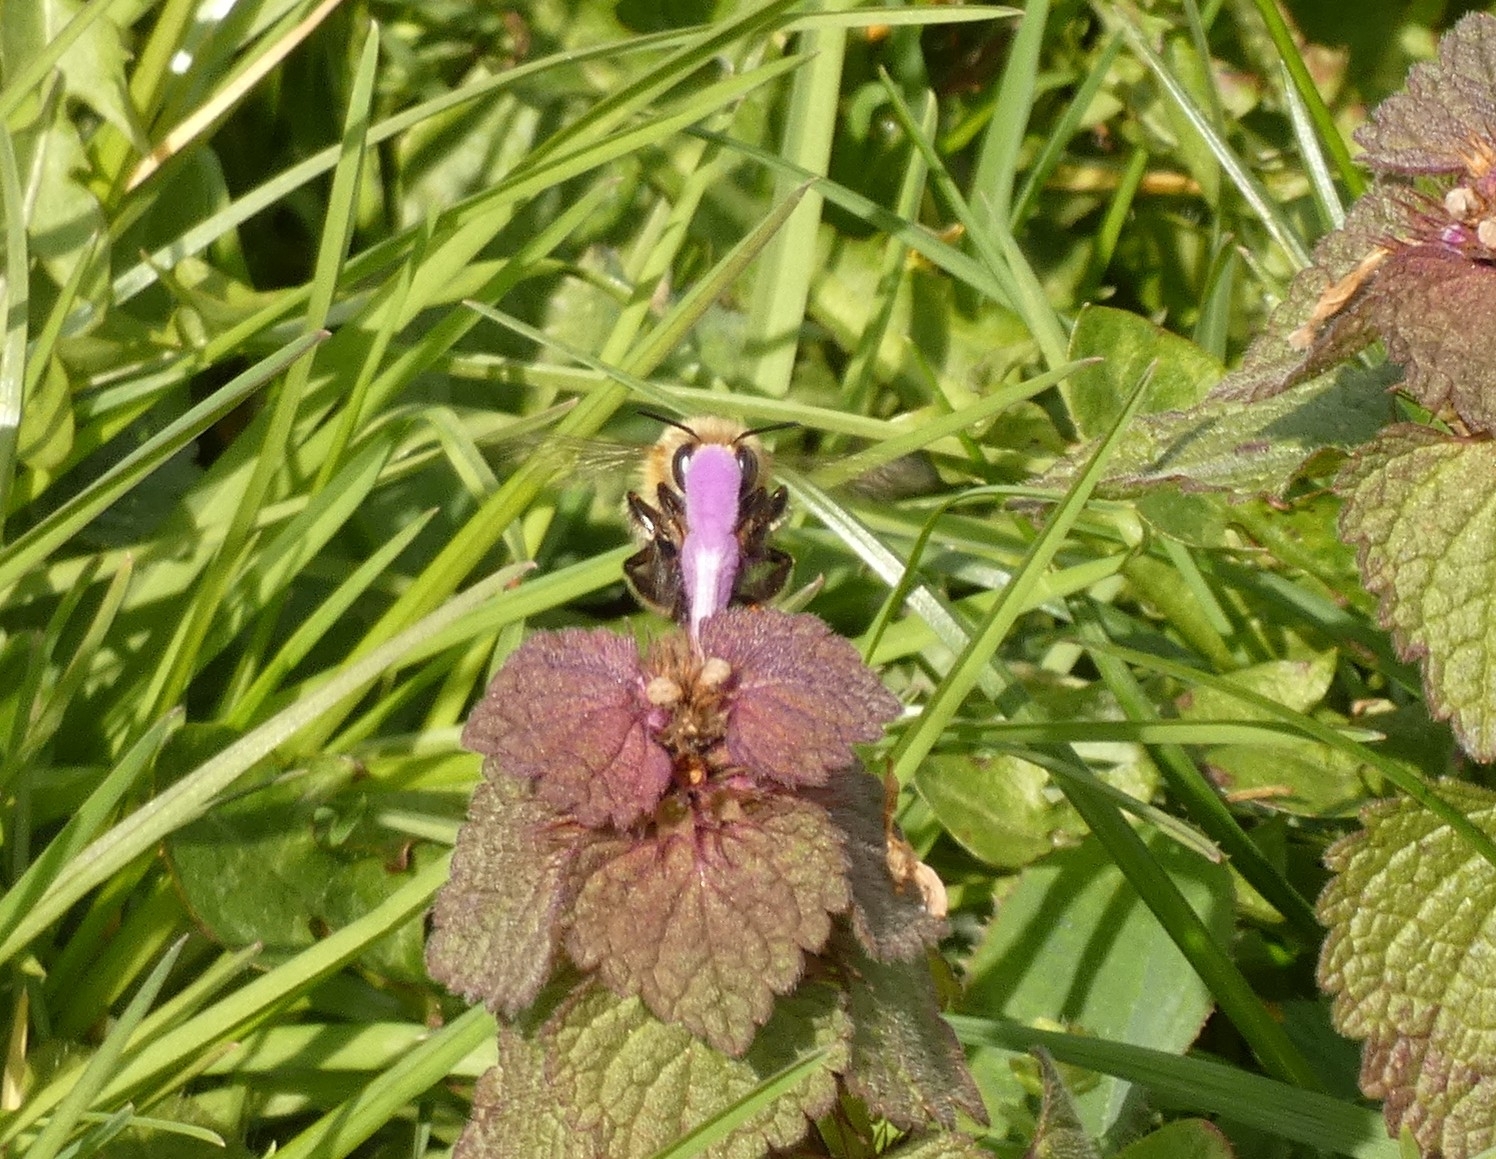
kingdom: Animalia
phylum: Arthropoda
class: Insecta
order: Hymenoptera
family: Apidae
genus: Anthophora
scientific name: Anthophora plumipes
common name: Hairy-footed flower bee
